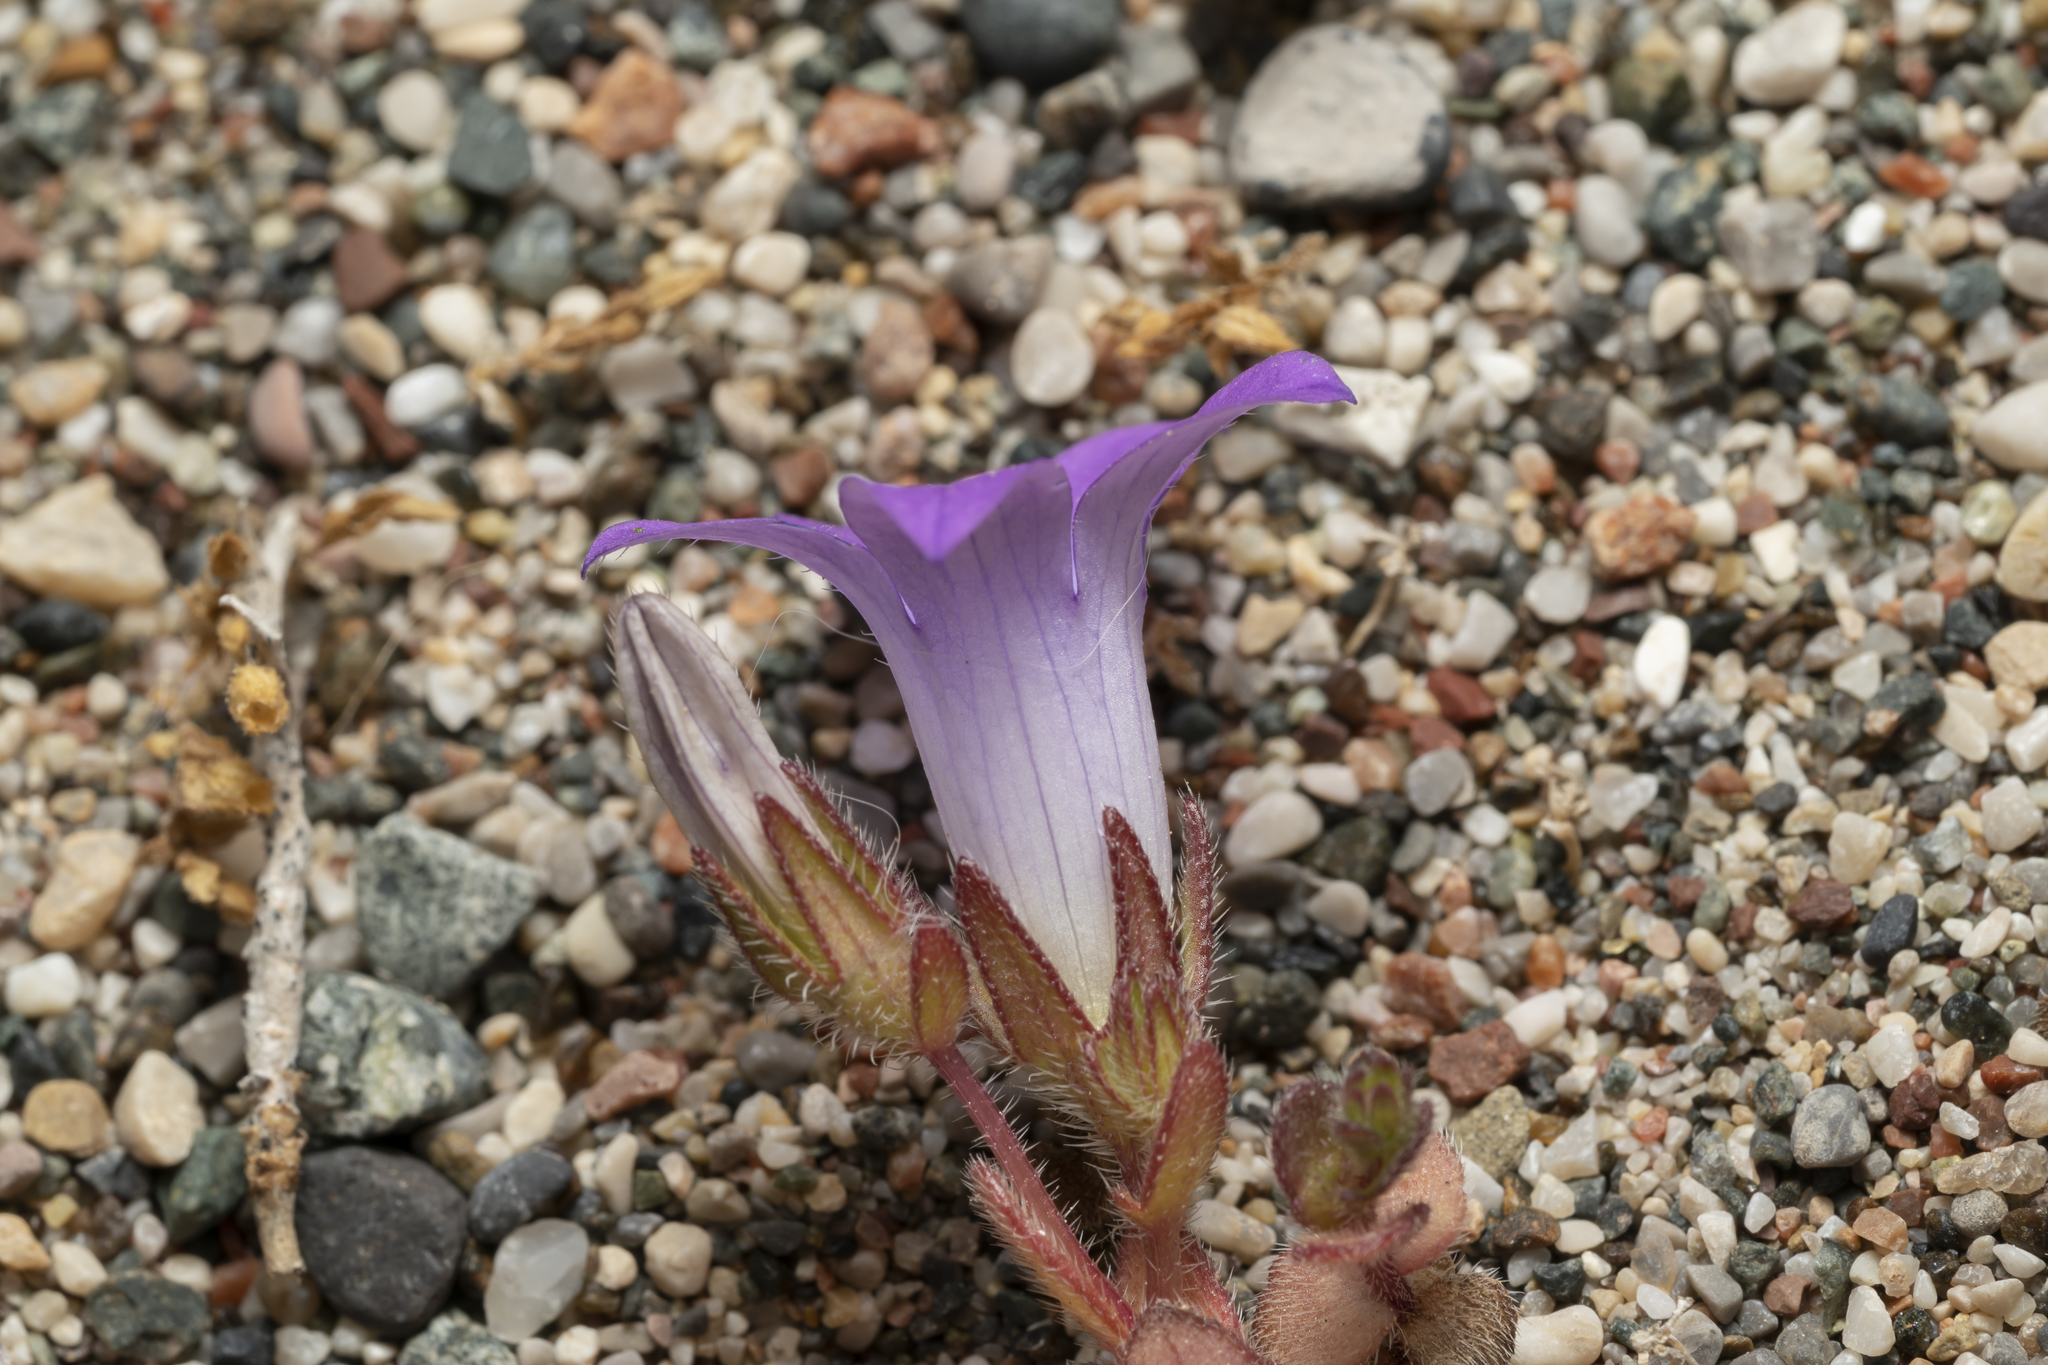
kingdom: Plantae
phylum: Tracheophyta
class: Magnoliopsida
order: Asterales
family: Campanulaceae
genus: Campanula
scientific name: Campanula rhodensis
